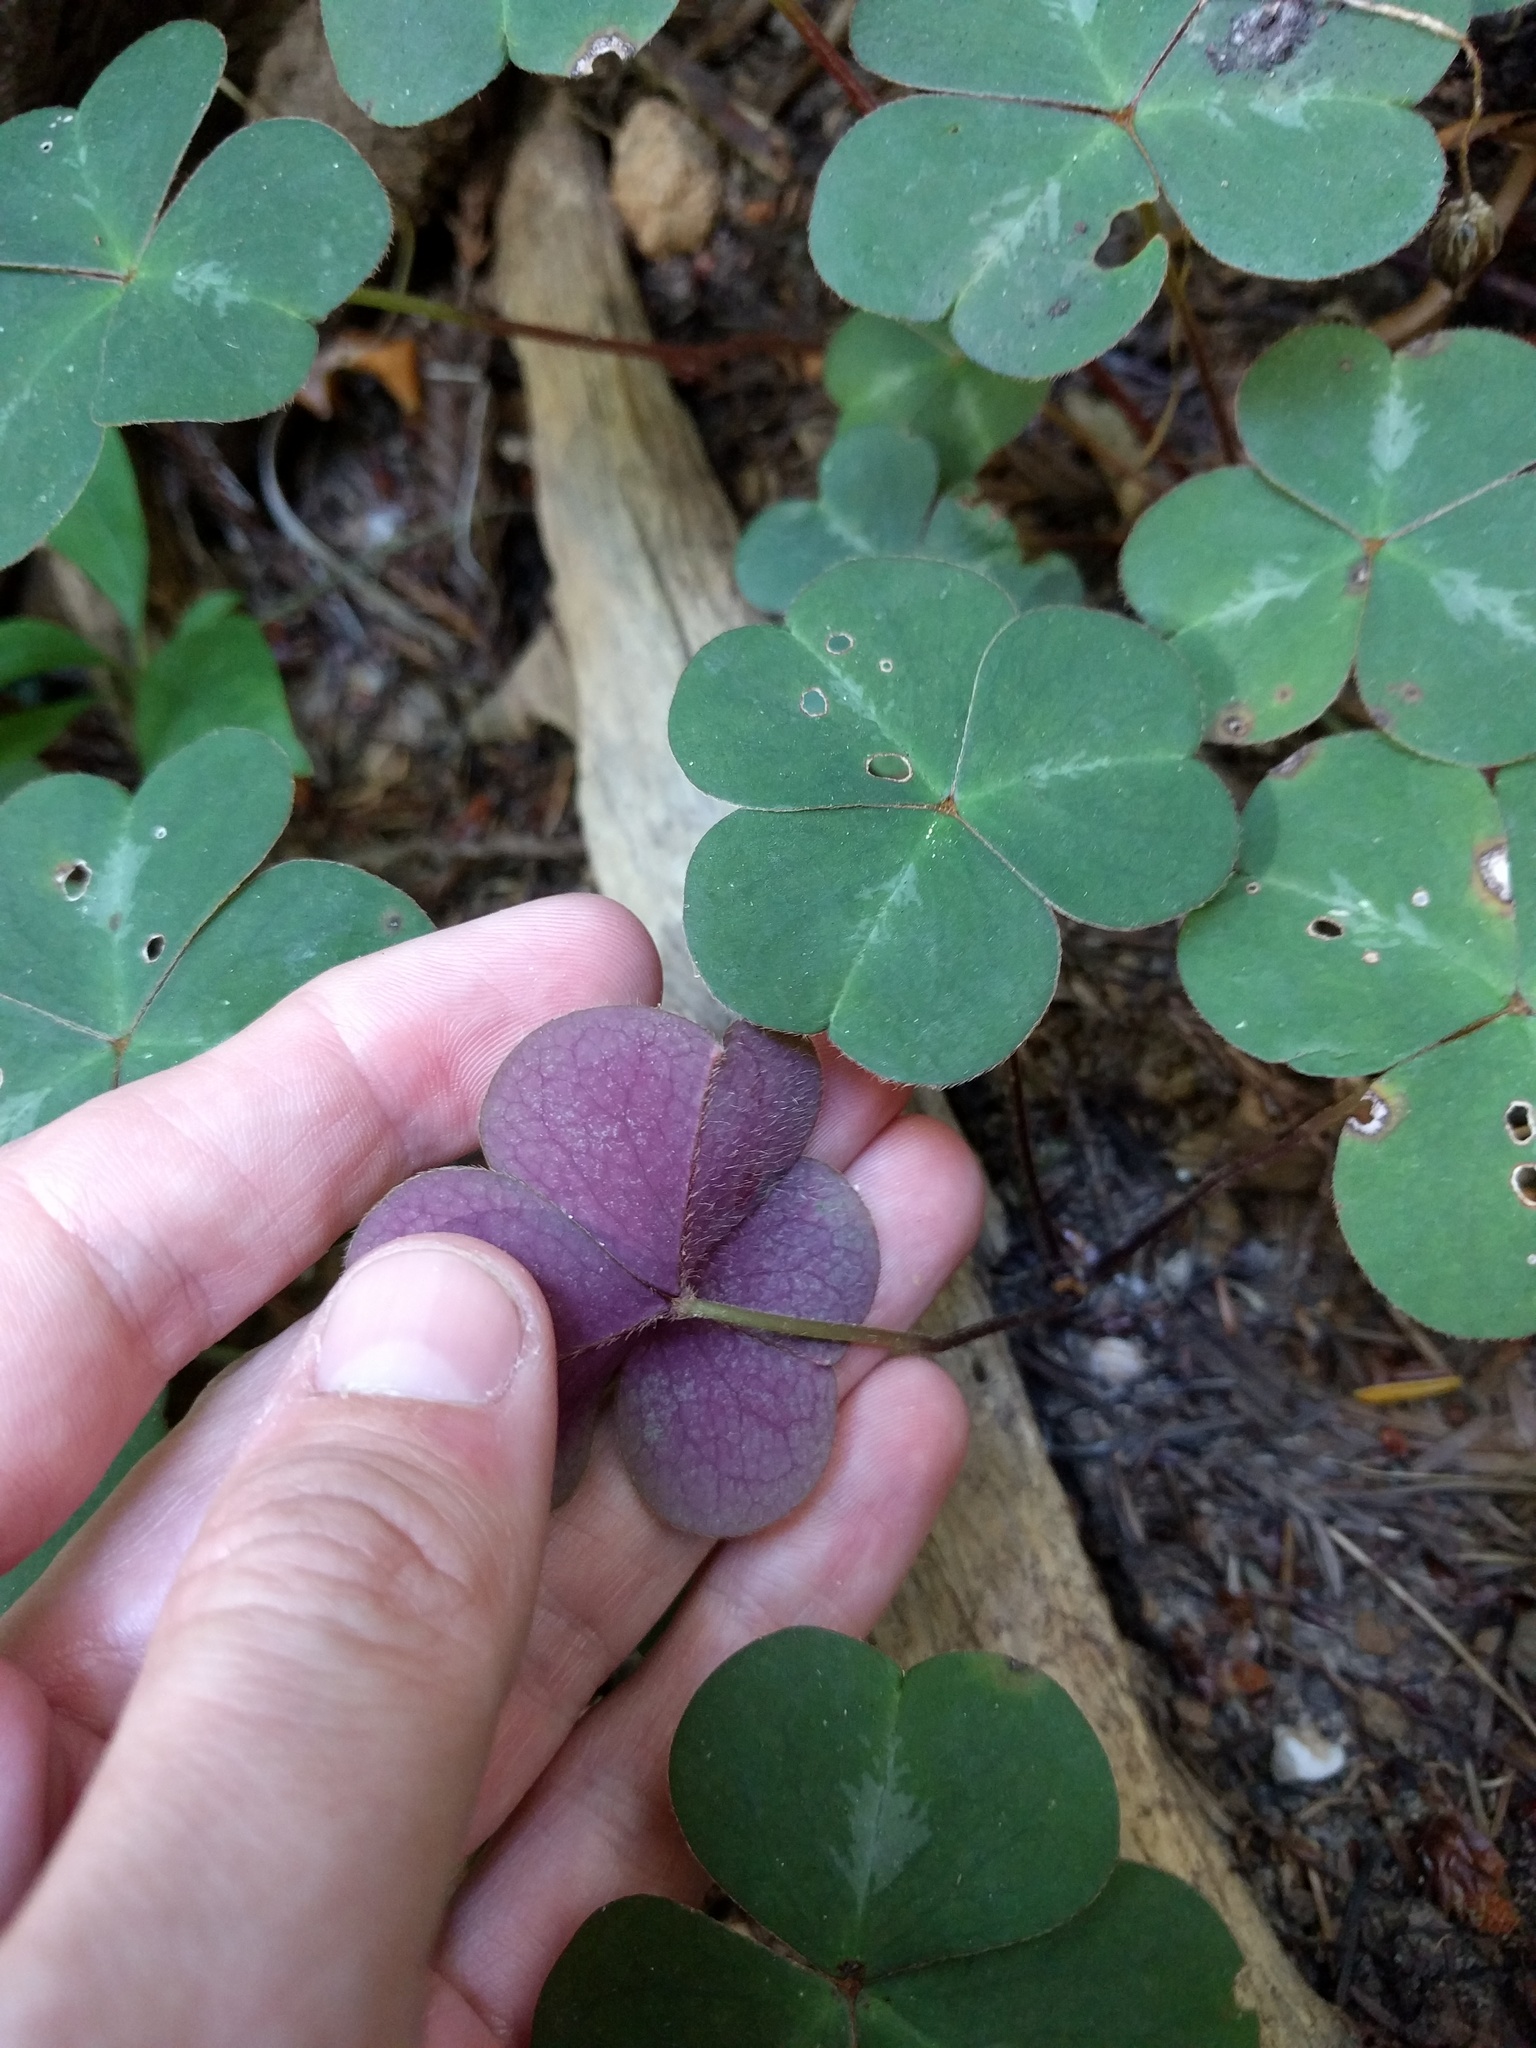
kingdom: Plantae
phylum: Tracheophyta
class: Magnoliopsida
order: Oxalidales
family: Oxalidaceae
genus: Oxalis
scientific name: Oxalis oregana
